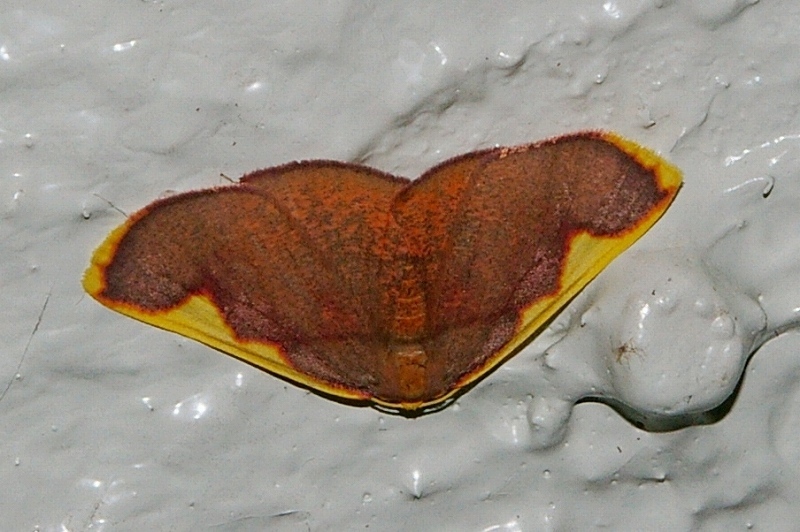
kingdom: Animalia
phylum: Arthropoda
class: Insecta
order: Lepidoptera
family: Geometridae
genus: Nothomiza
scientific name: Nothomiza formosa
